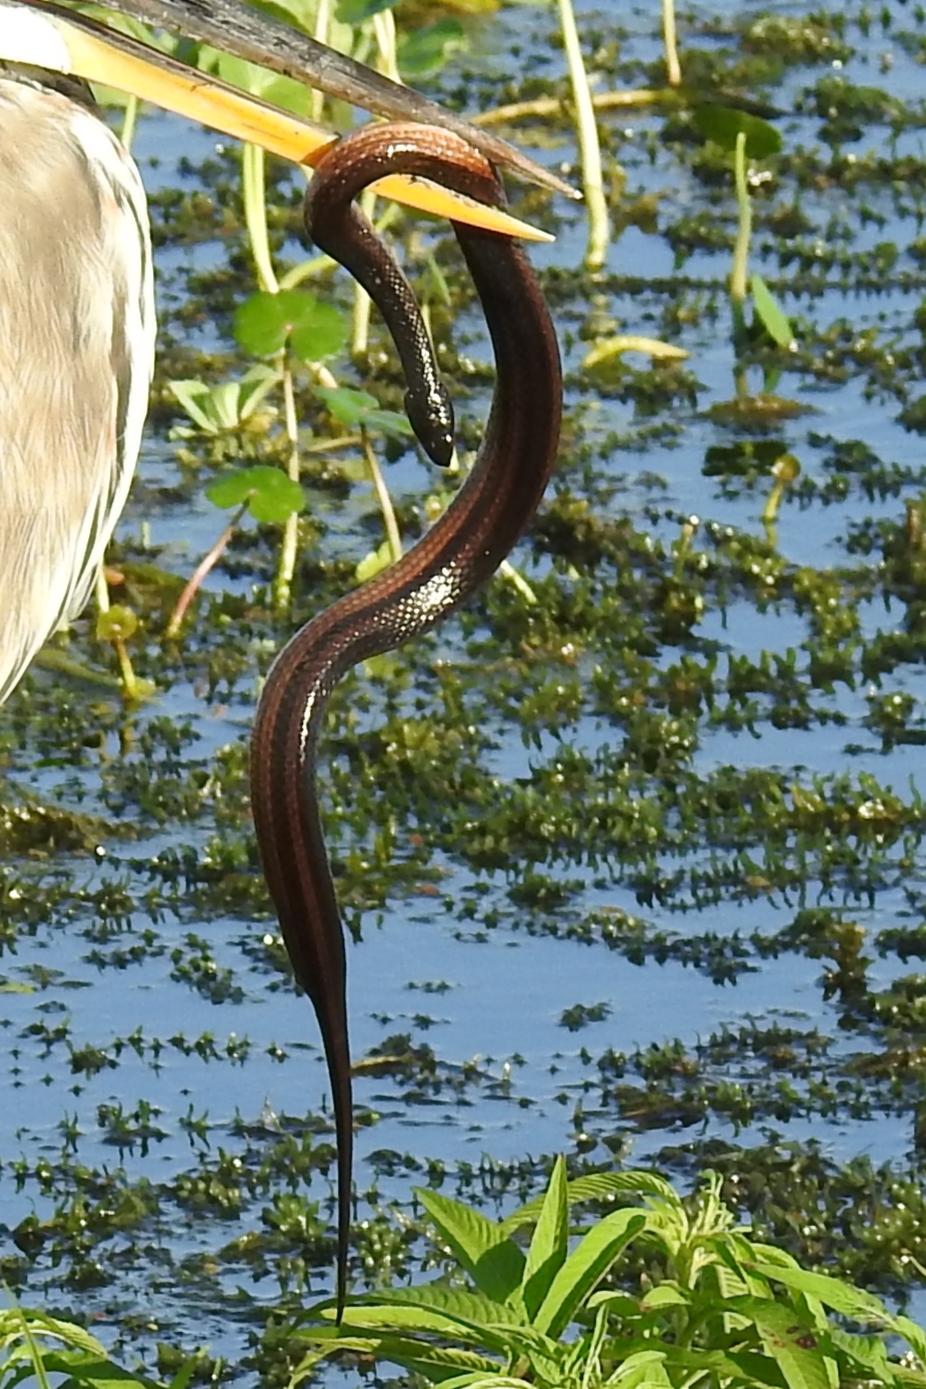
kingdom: Animalia
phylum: Chordata
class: Squamata
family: Colubridae
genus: Liodytes
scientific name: Liodytes alleni
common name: Striped crayfish snake
